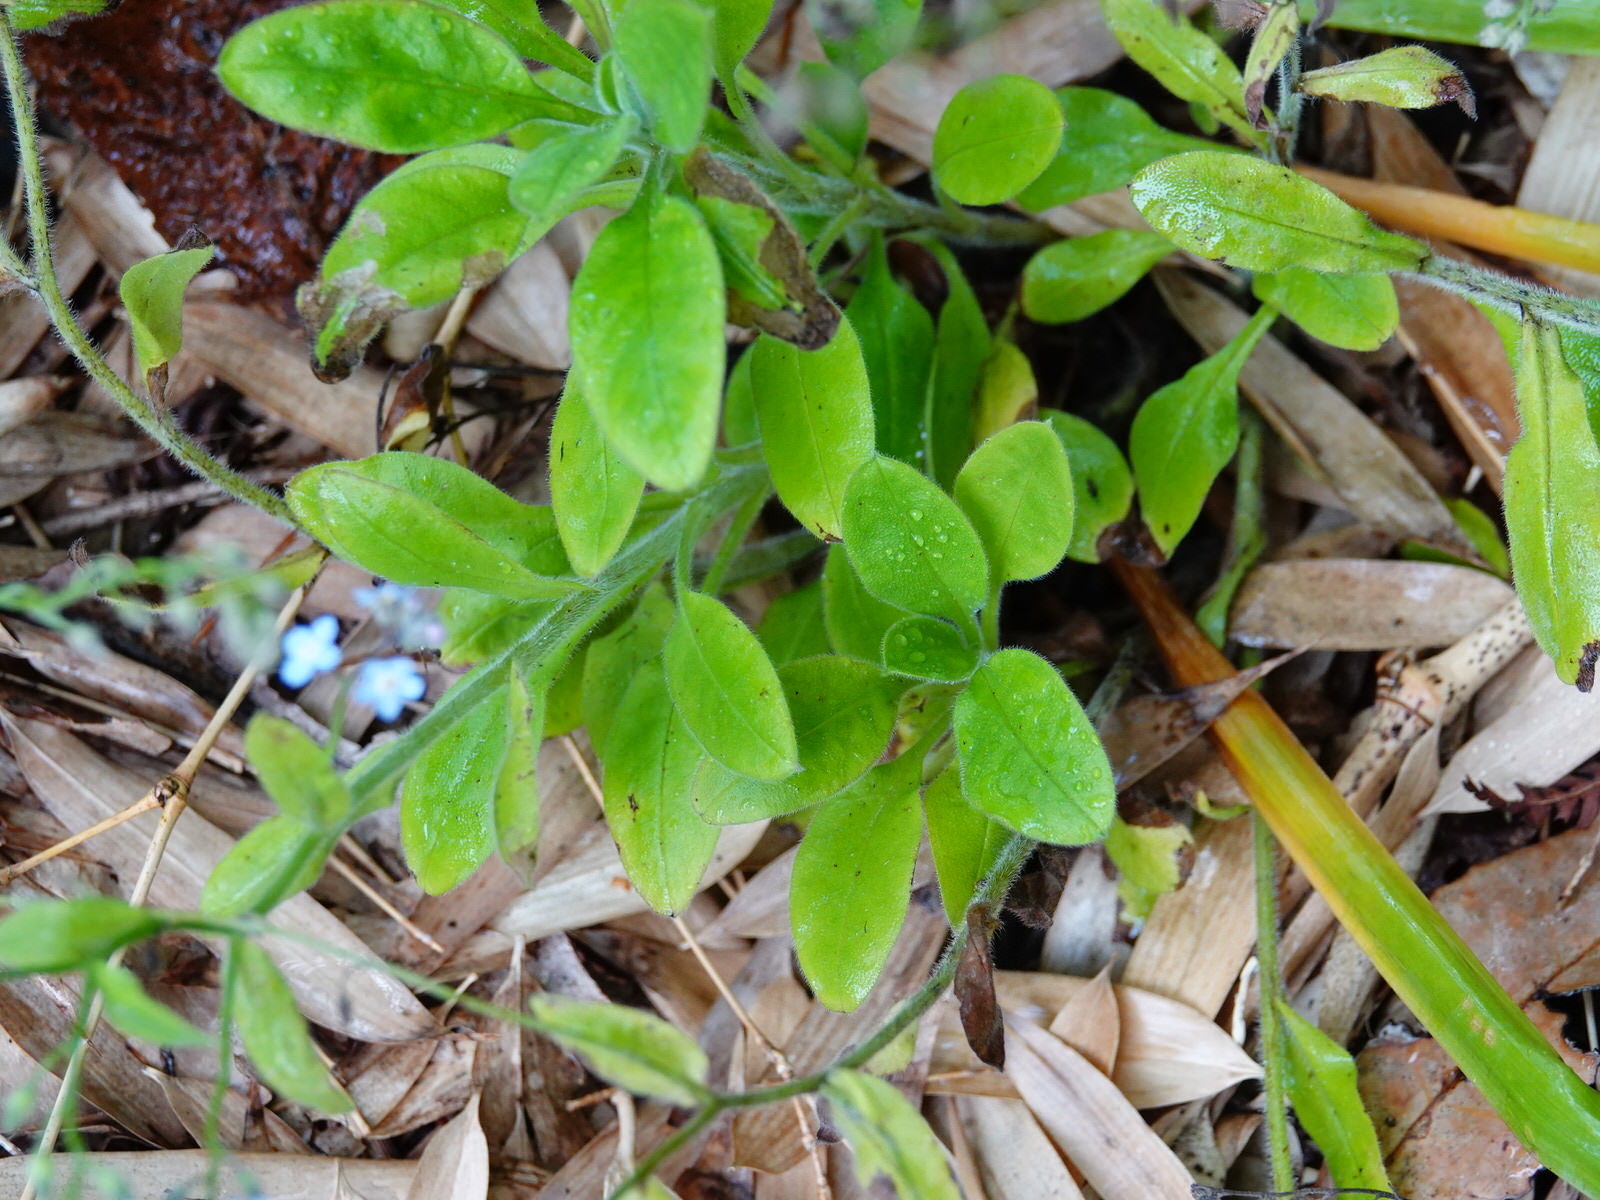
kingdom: Plantae
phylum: Tracheophyta
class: Magnoliopsida
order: Boraginales
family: Boraginaceae
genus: Myosotis
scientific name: Myosotis sylvatica
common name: Wood forget-me-not
